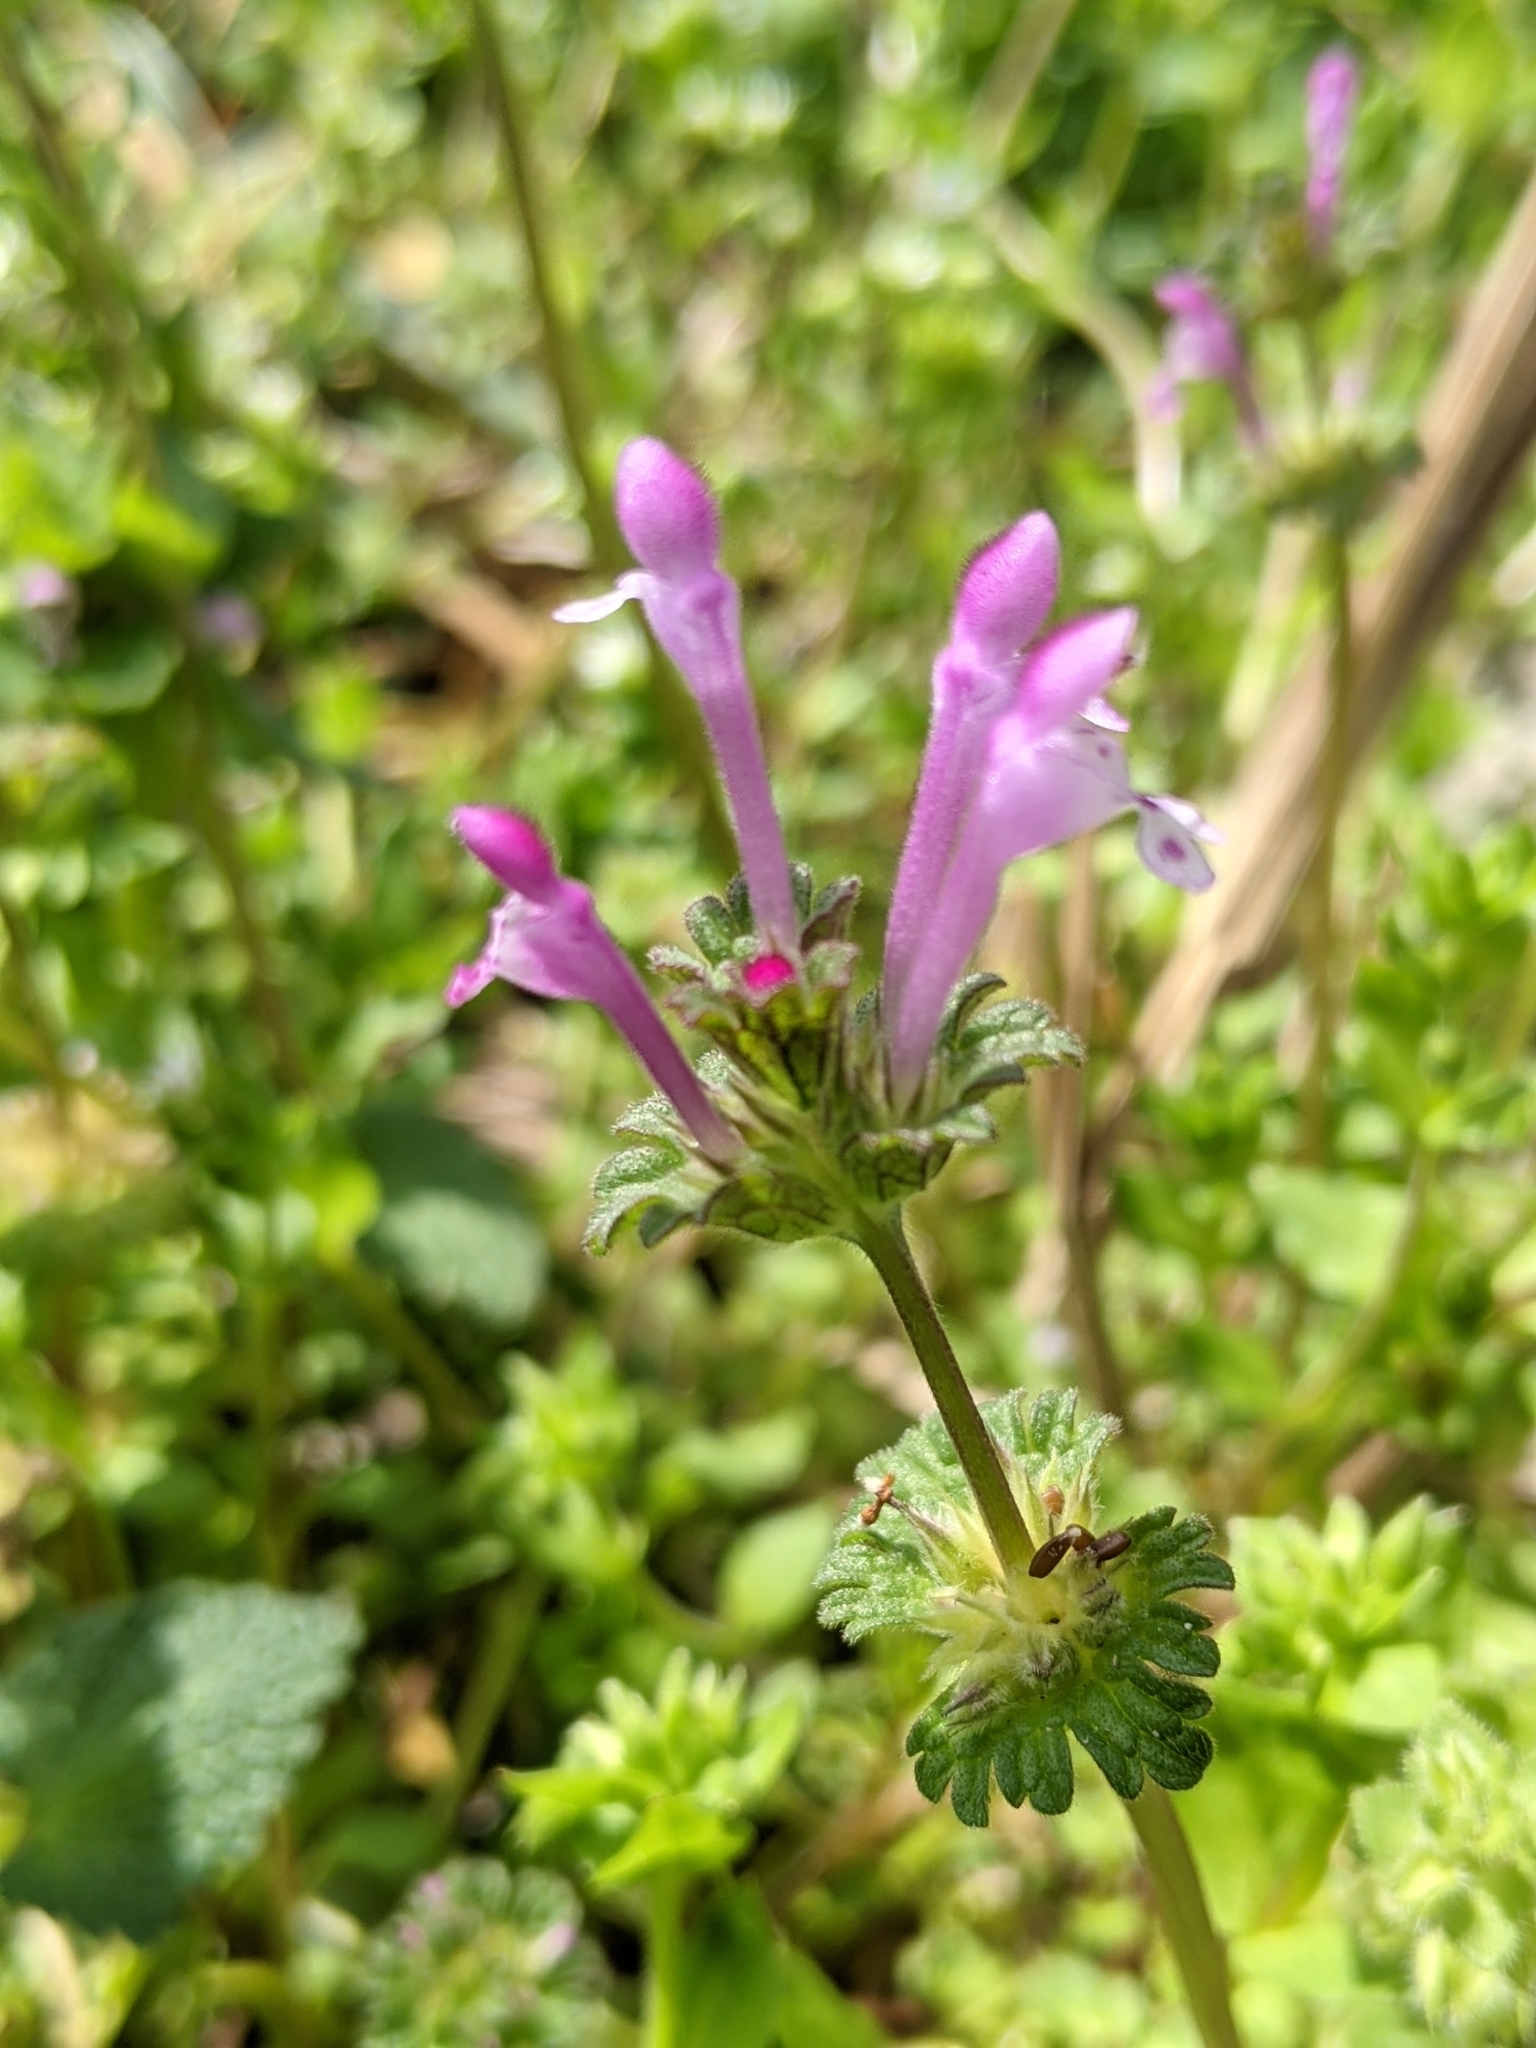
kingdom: Plantae
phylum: Tracheophyta
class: Magnoliopsida
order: Lamiales
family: Lamiaceae
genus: Lamium
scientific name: Lamium amplexicaule
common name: Henbit dead-nettle
